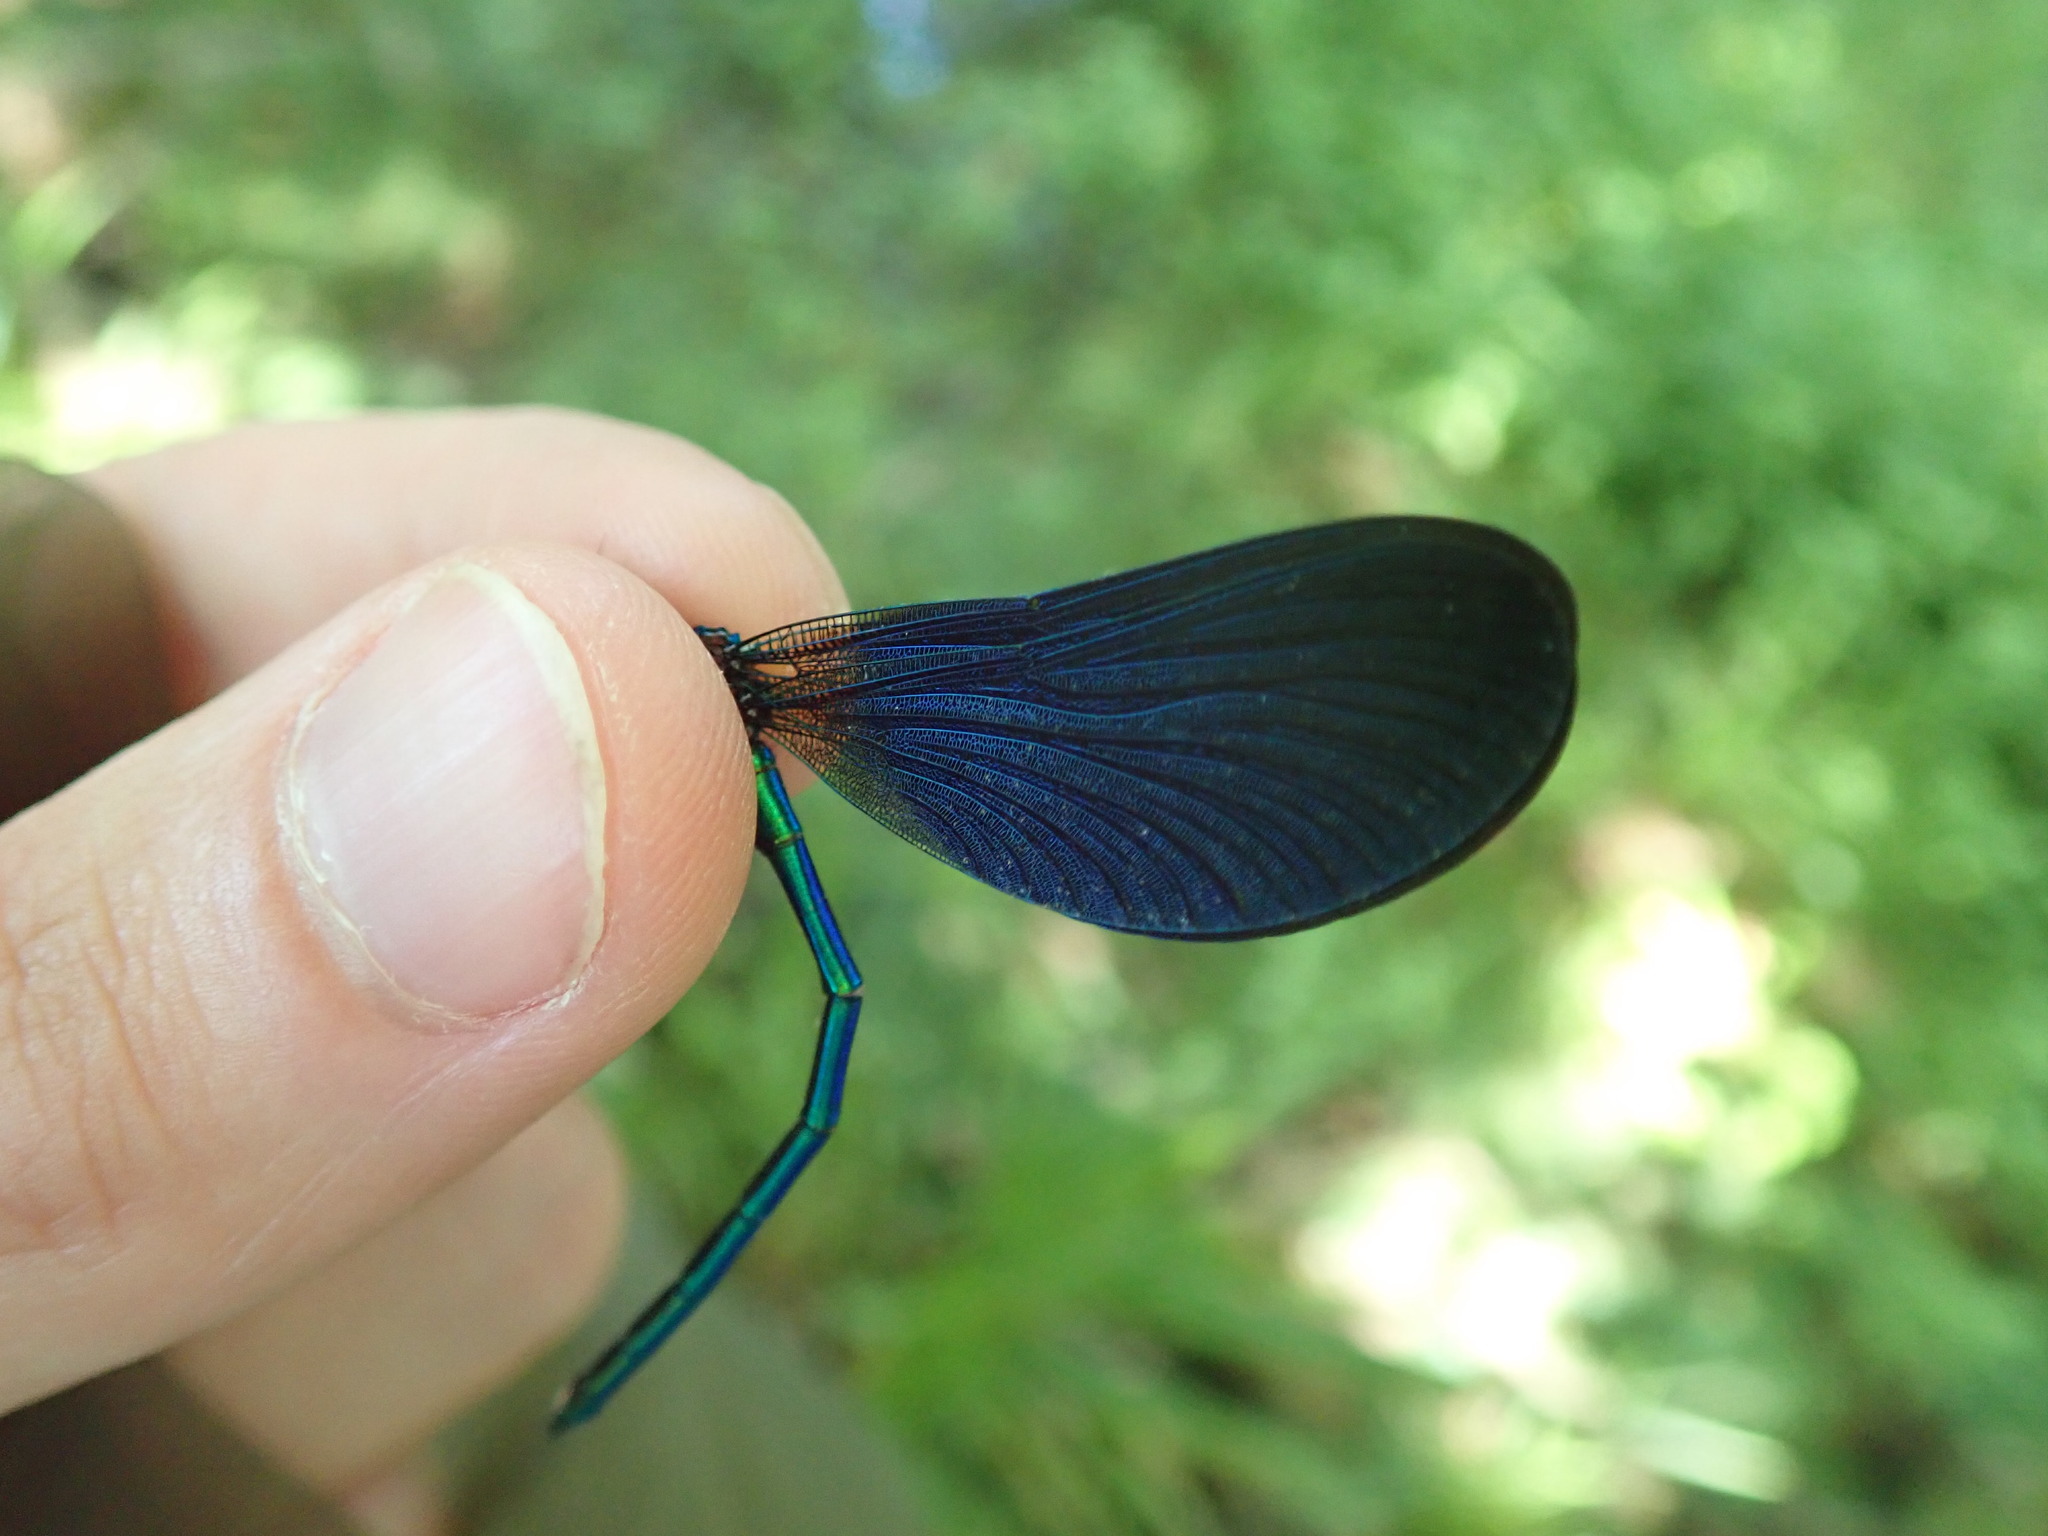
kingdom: Animalia
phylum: Arthropoda
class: Insecta
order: Odonata
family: Calopterygidae
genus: Calopteryx
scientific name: Calopteryx virgo
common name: Beautiful demoiselle
